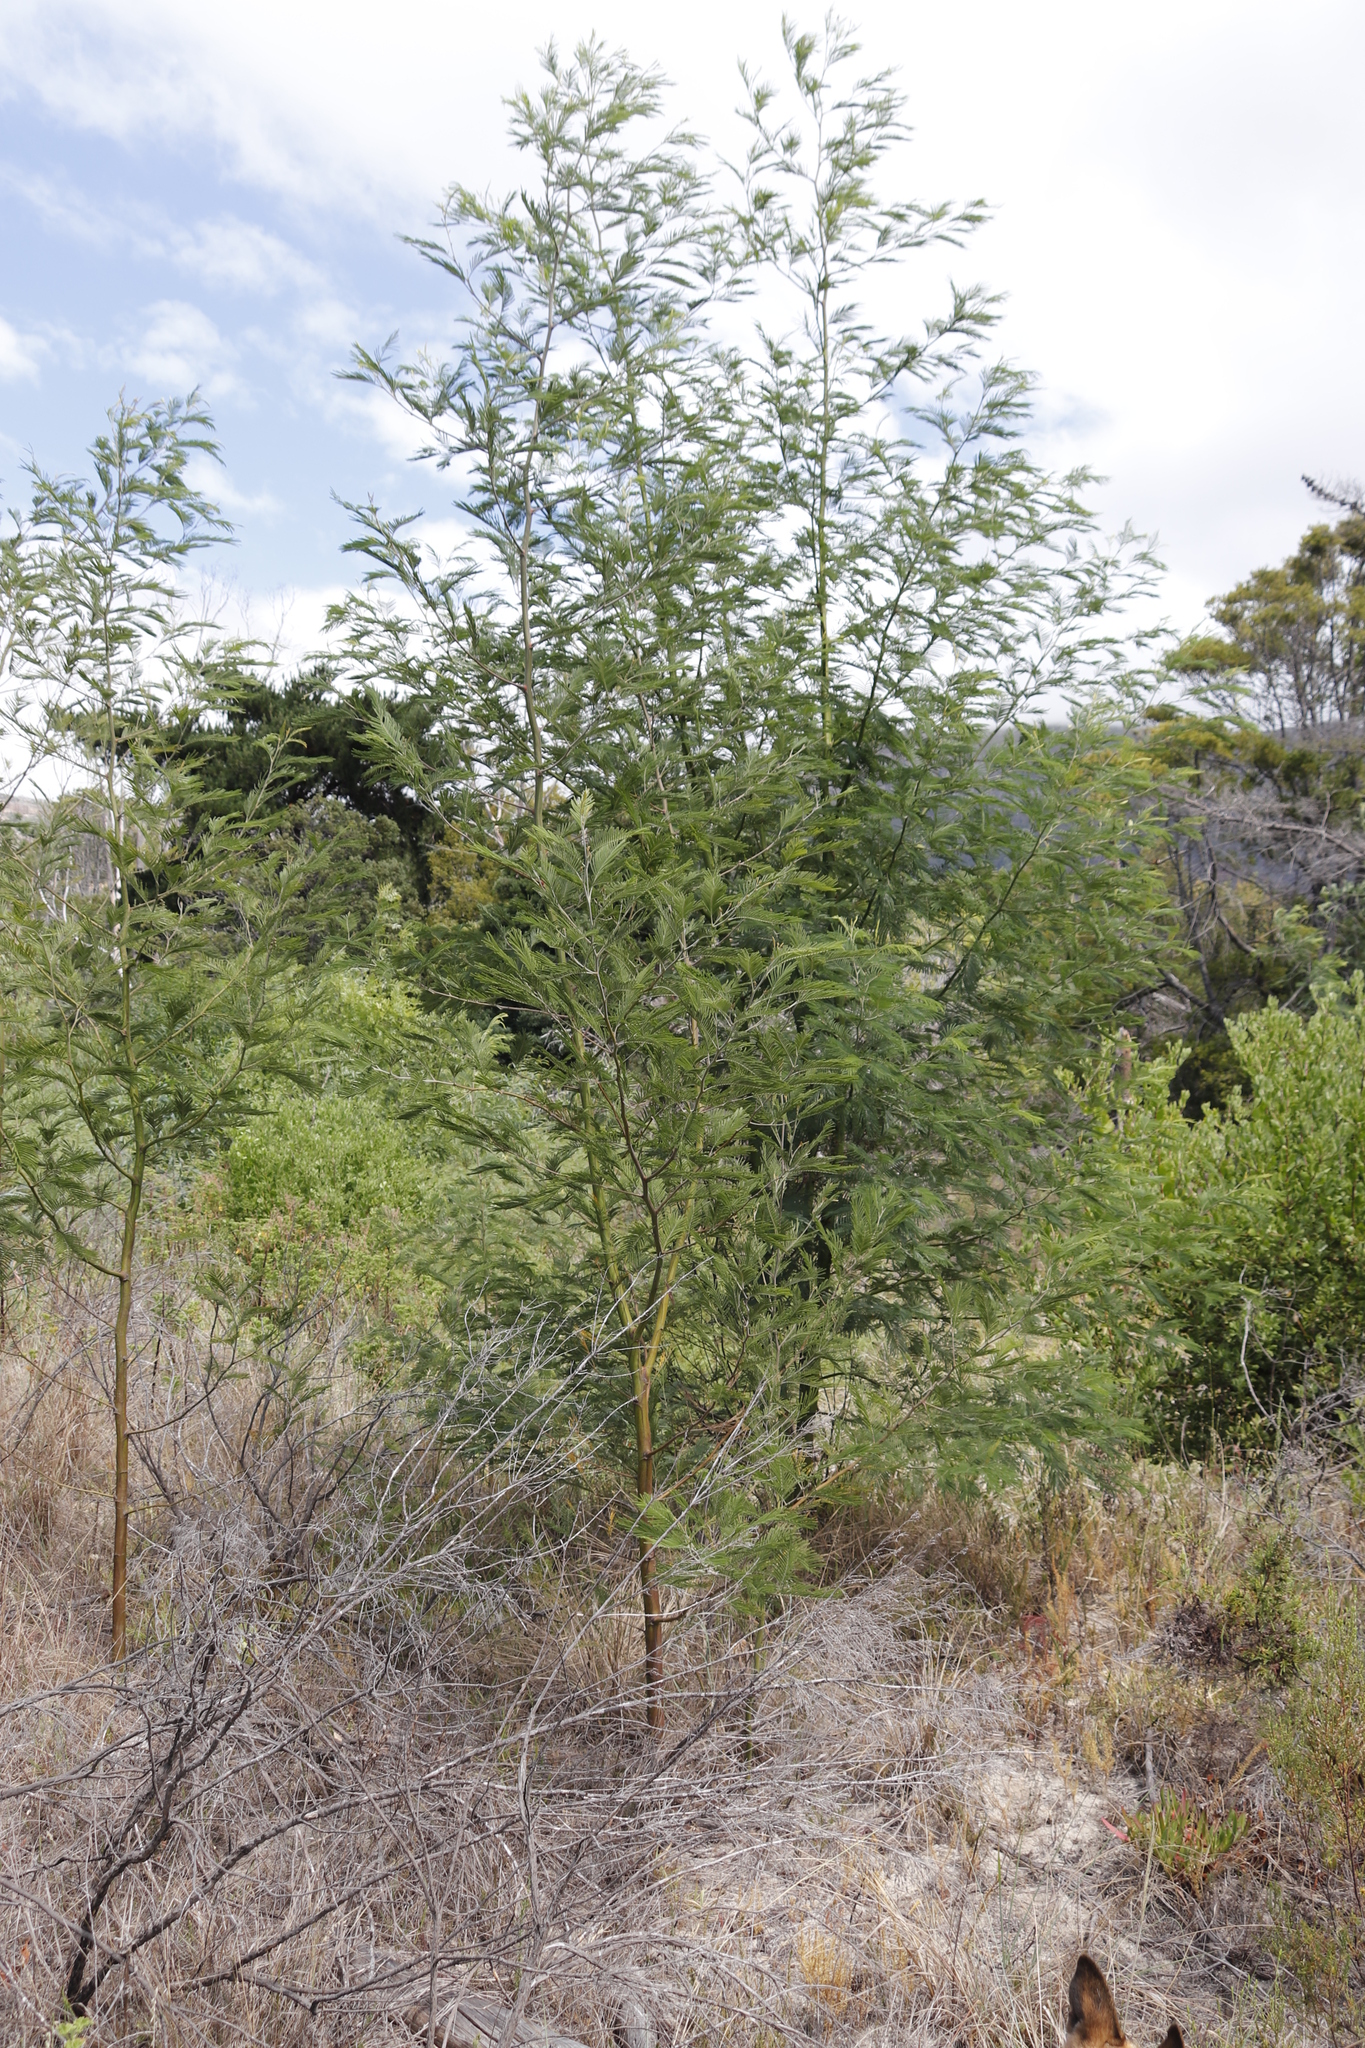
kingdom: Plantae
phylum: Tracheophyta
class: Magnoliopsida
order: Fabales
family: Fabaceae
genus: Acacia
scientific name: Acacia mearnsii
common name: Black wattle
